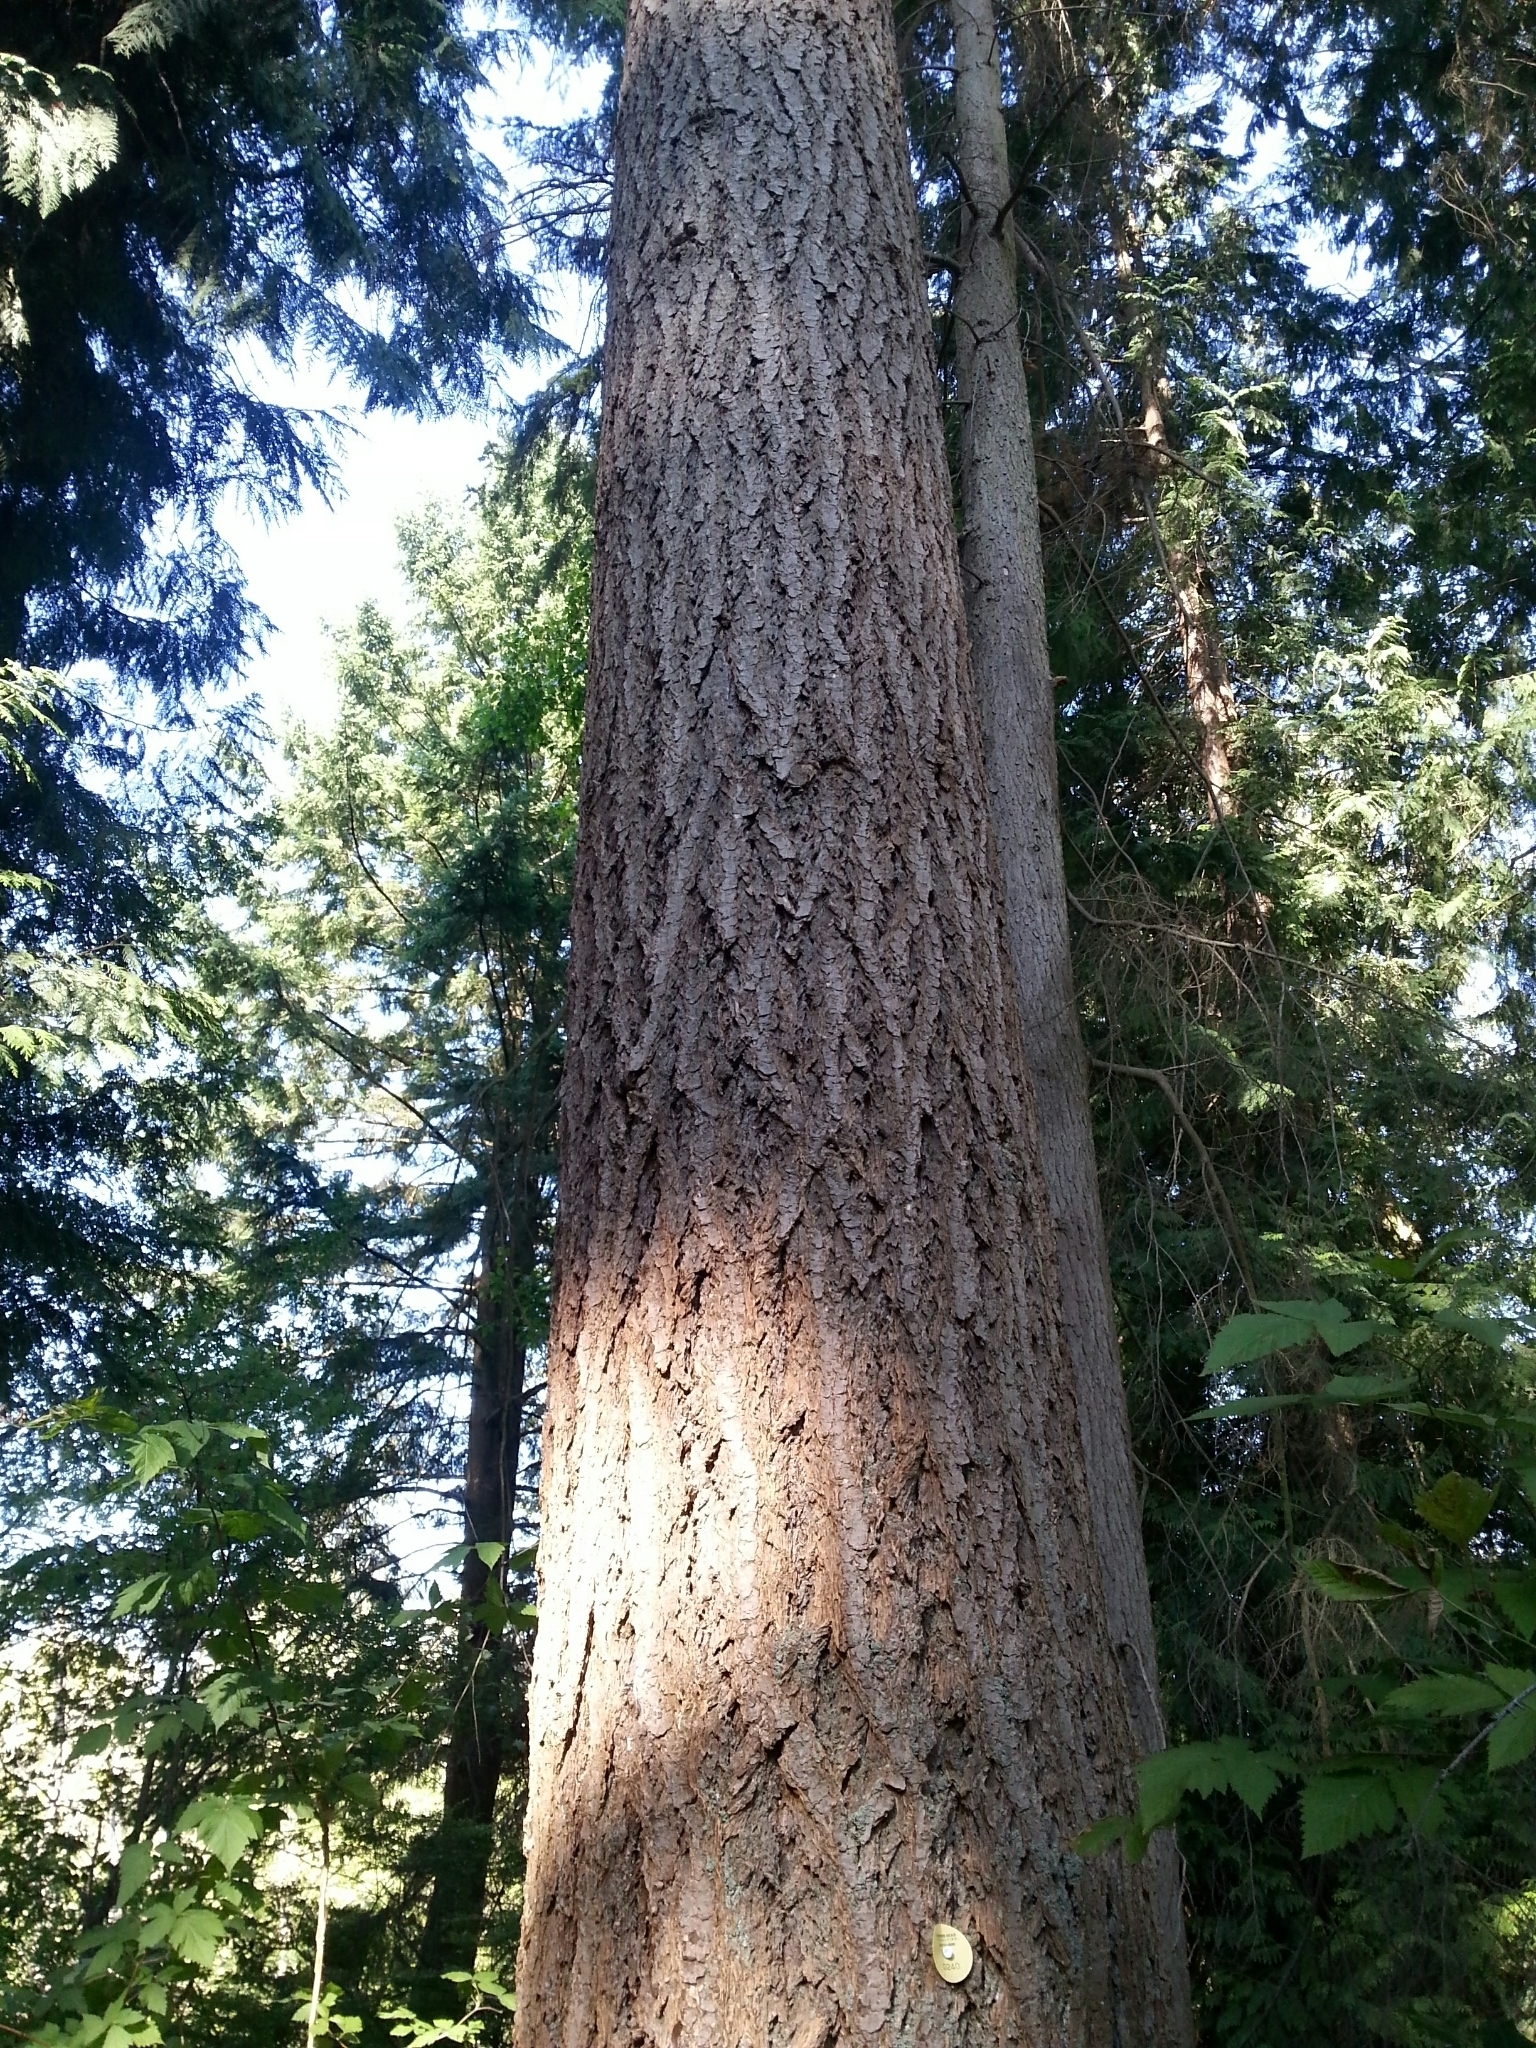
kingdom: Plantae
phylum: Tracheophyta
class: Pinopsida
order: Pinales
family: Pinaceae
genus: Pseudotsuga
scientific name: Pseudotsuga menziesii
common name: Douglas fir
